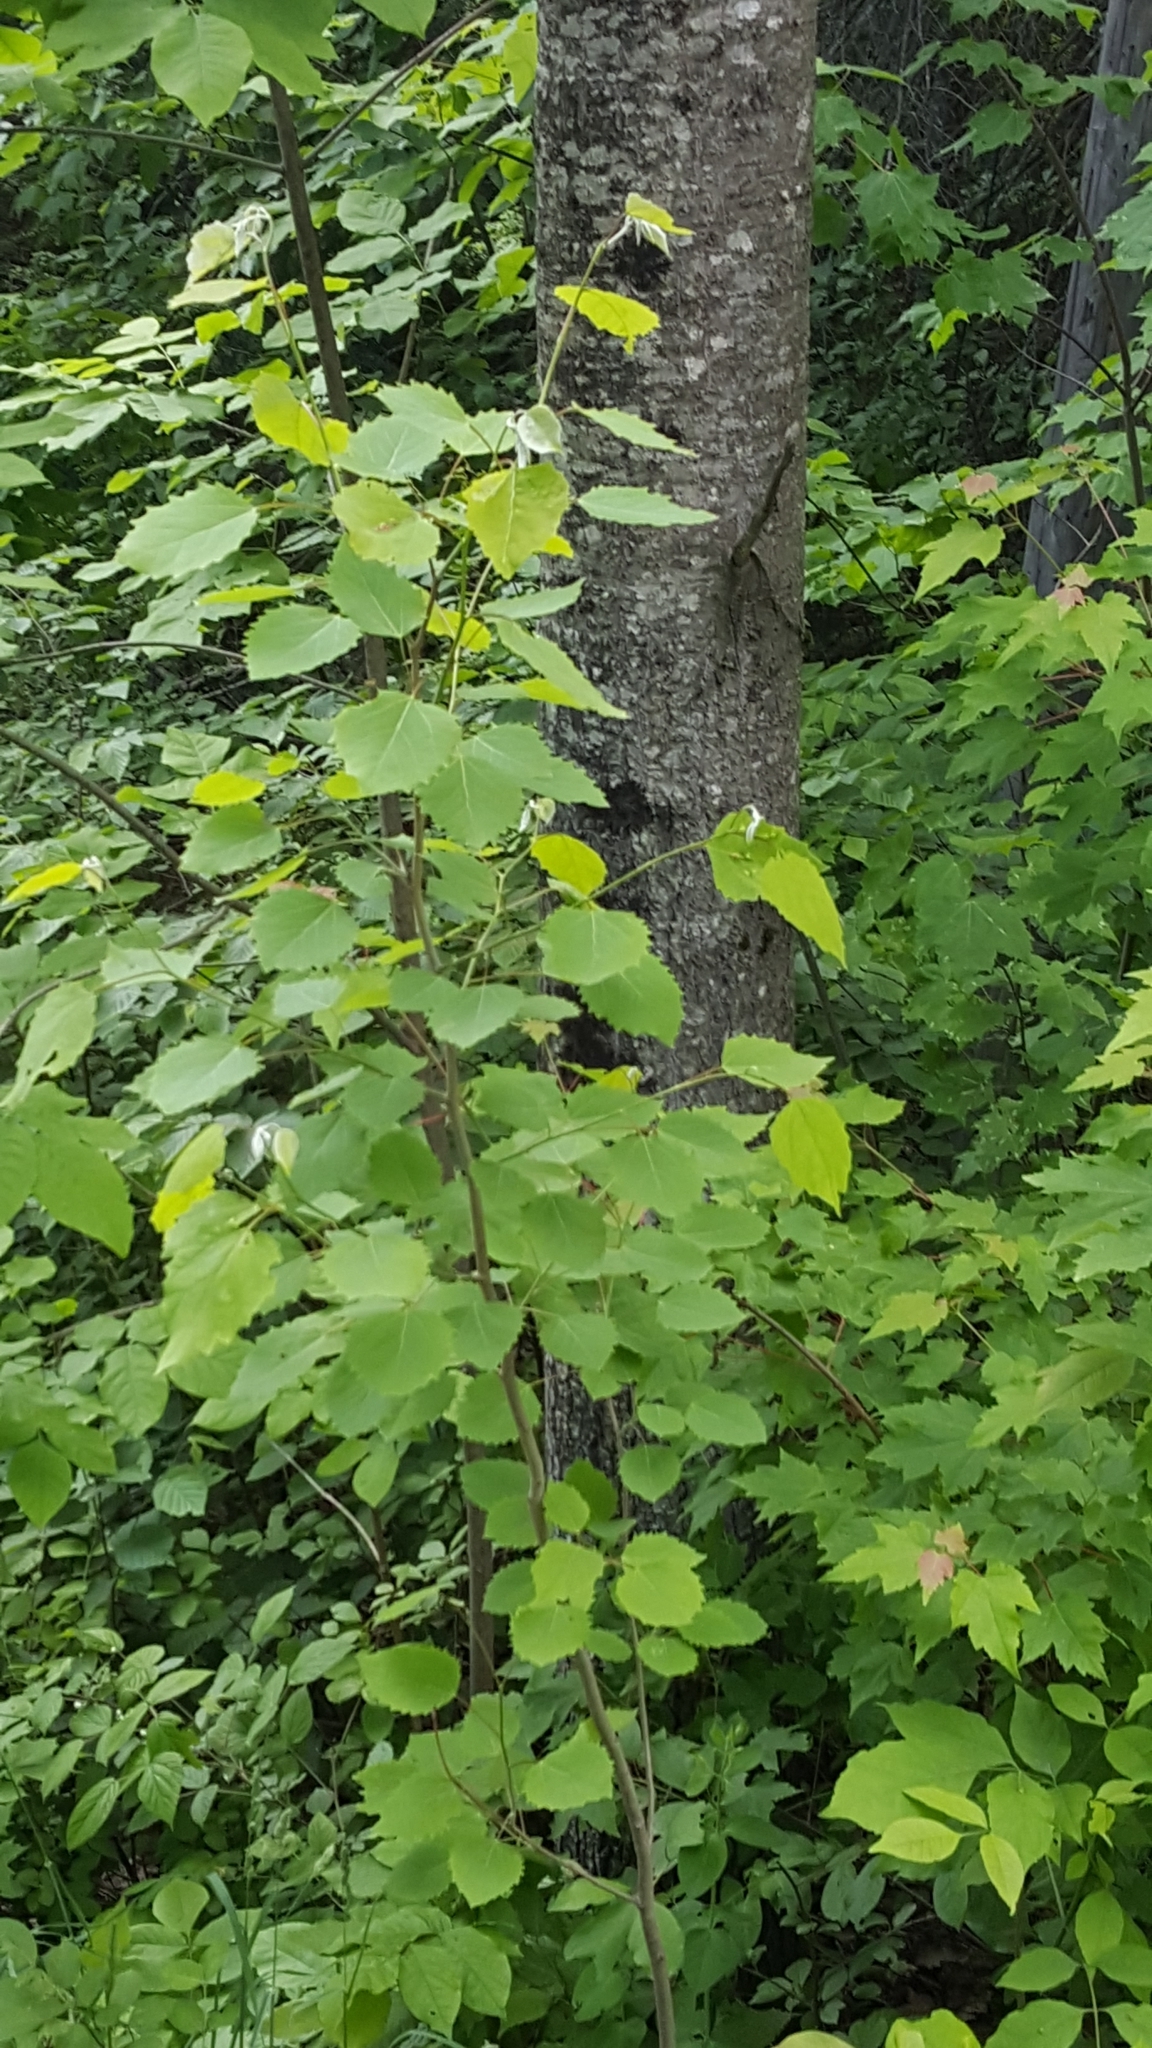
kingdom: Plantae
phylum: Tracheophyta
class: Magnoliopsida
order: Malpighiales
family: Salicaceae
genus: Populus
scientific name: Populus grandidentata
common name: Bigtooth aspen
